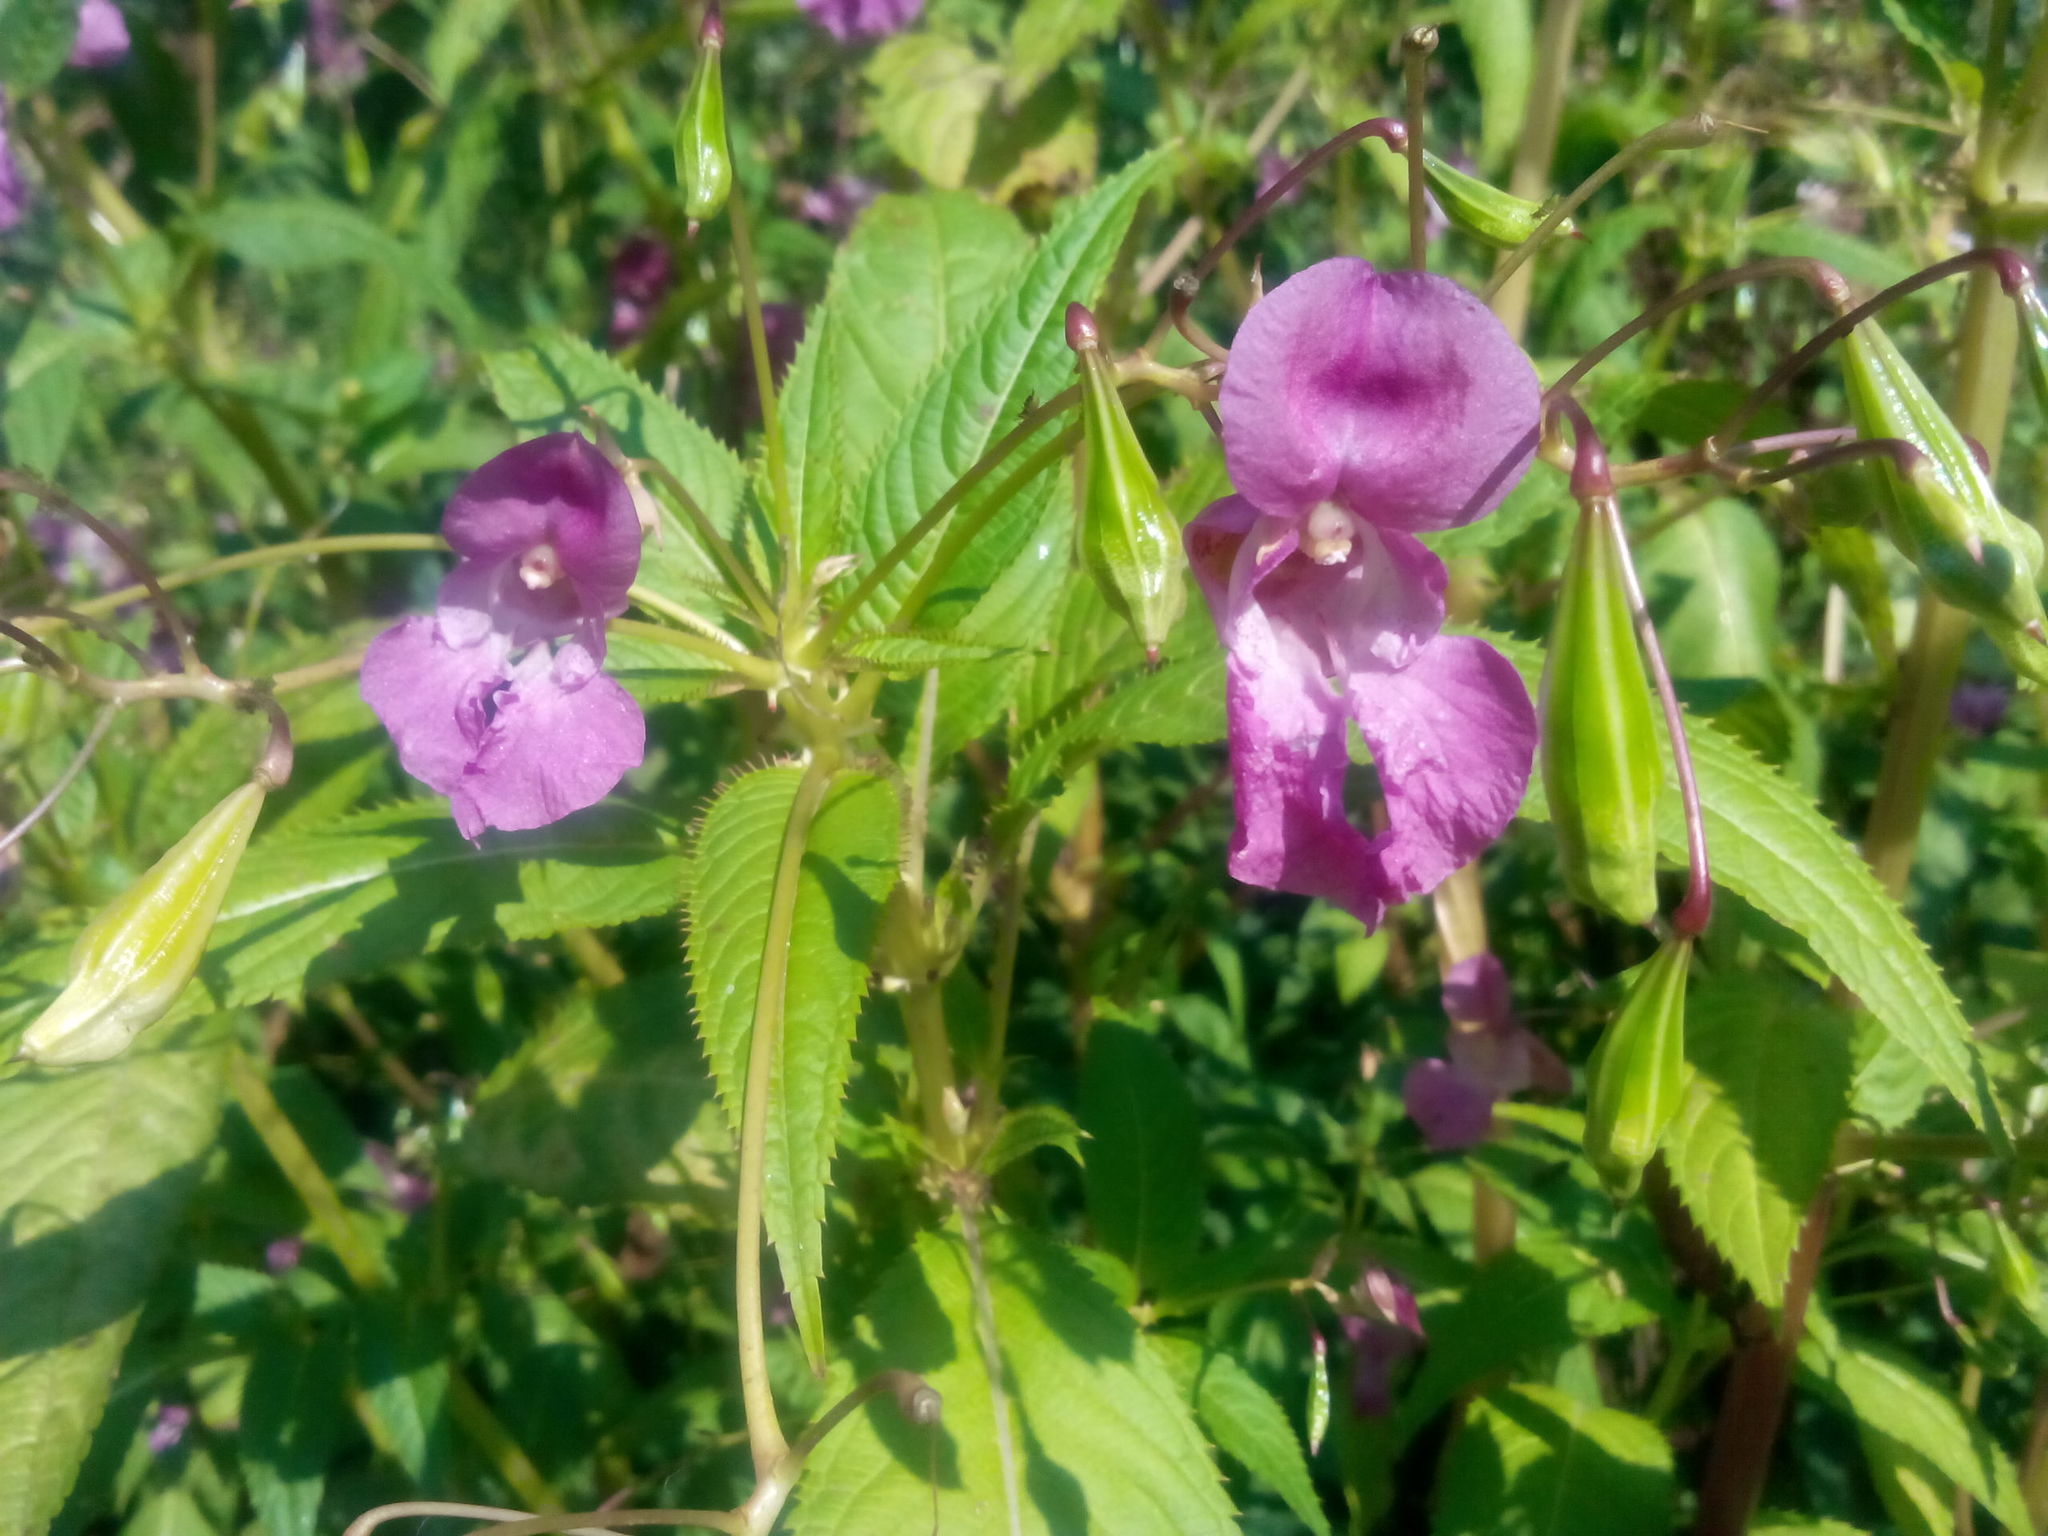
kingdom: Plantae
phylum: Tracheophyta
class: Magnoliopsida
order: Ericales
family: Balsaminaceae
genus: Impatiens
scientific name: Impatiens glandulifera
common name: Himalayan balsam
